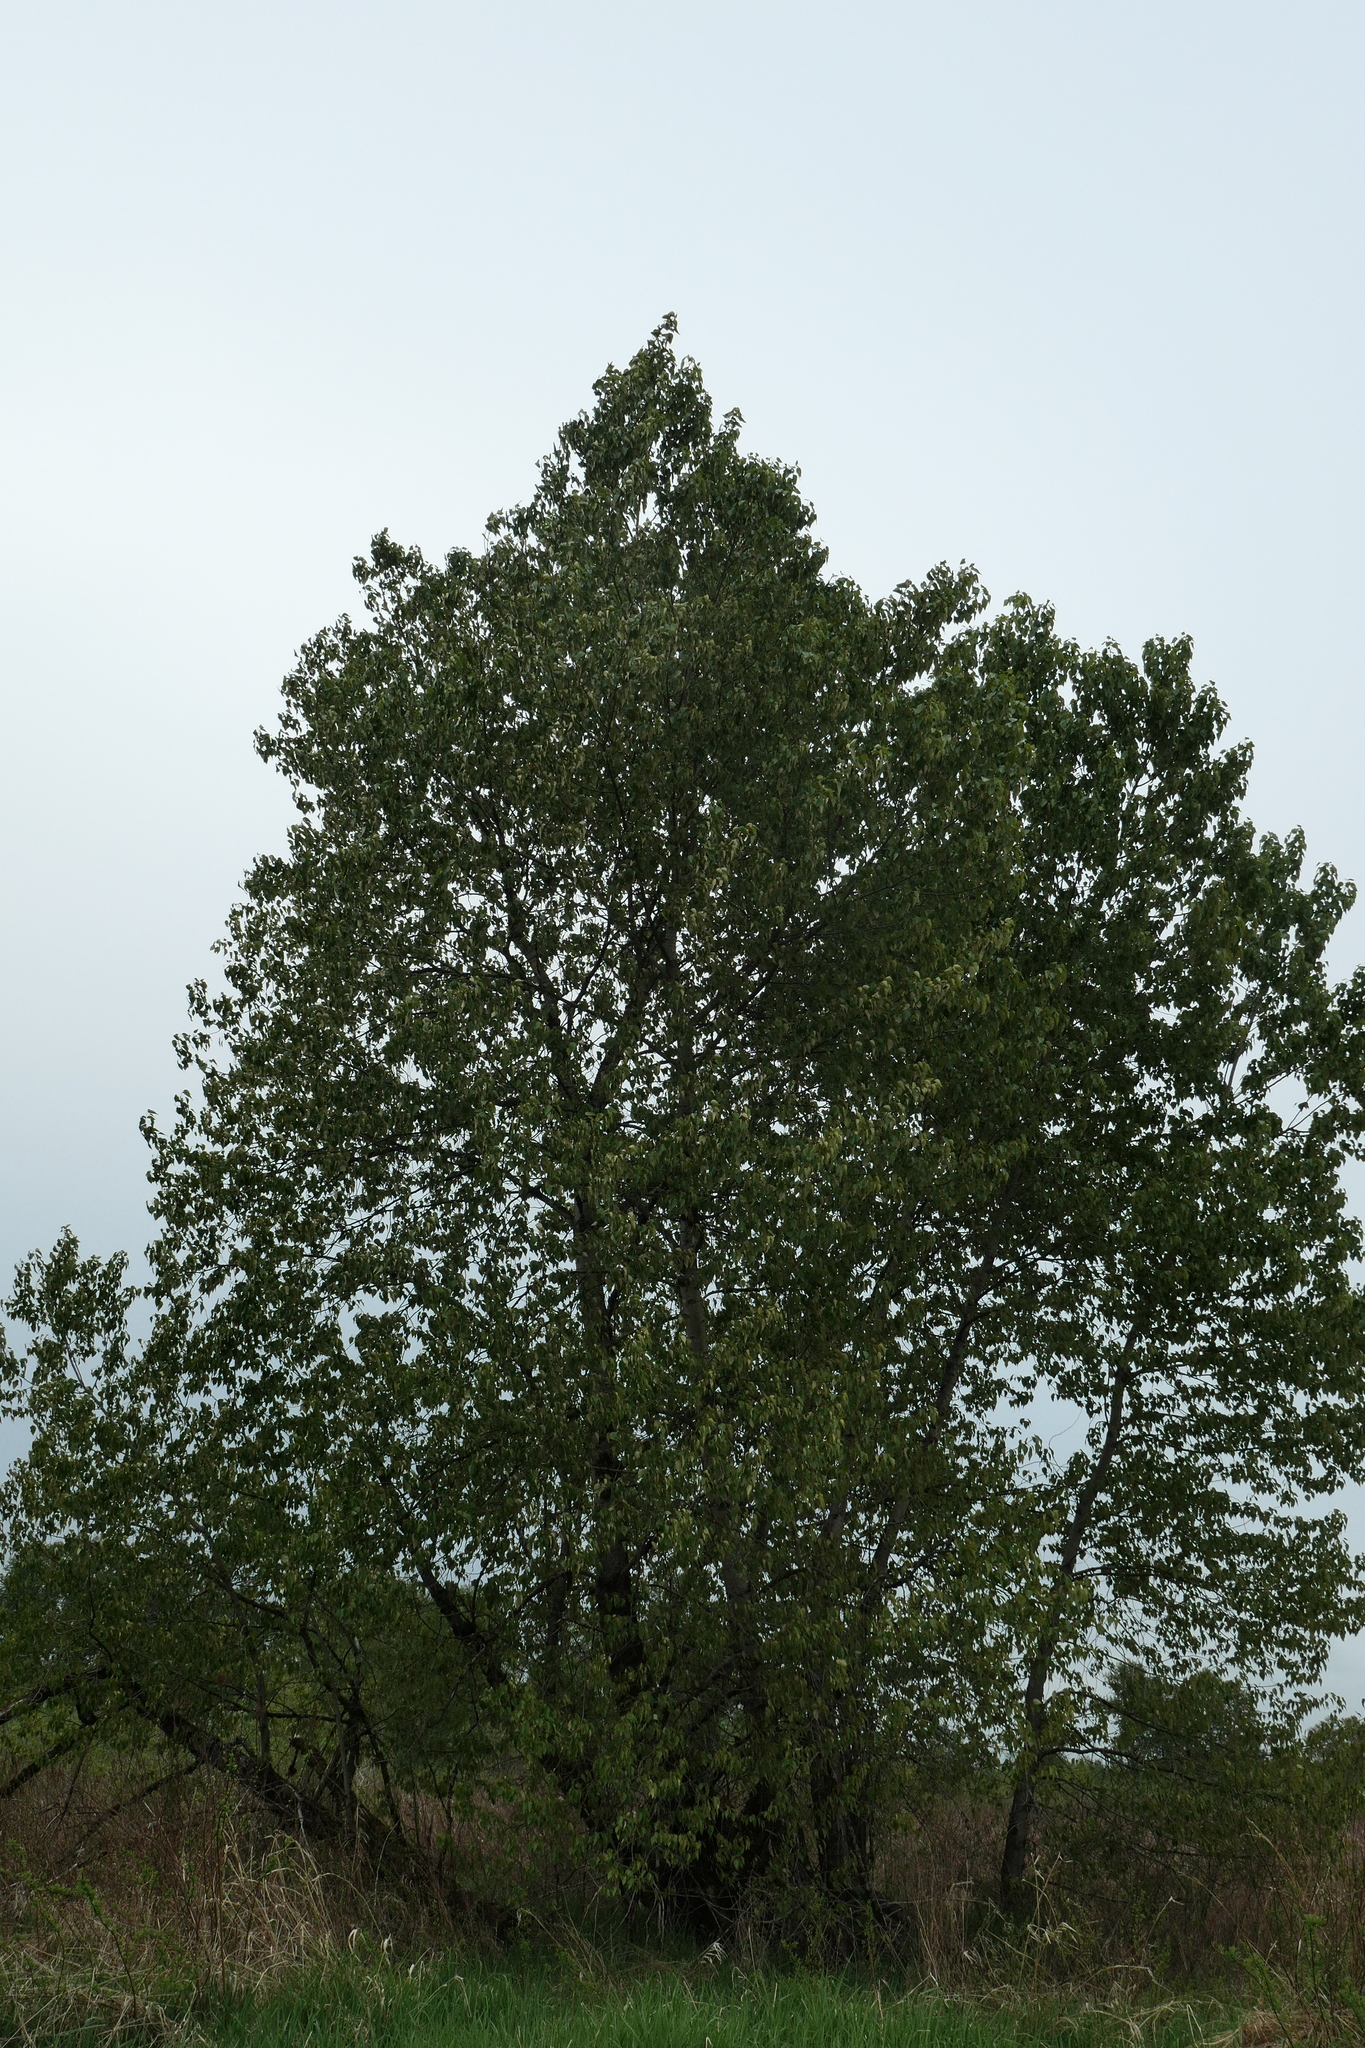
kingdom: Plantae
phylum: Tracheophyta
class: Magnoliopsida
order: Malpighiales
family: Salicaceae
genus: Populus
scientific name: Populus trichocarpa
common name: Black cottonwood
